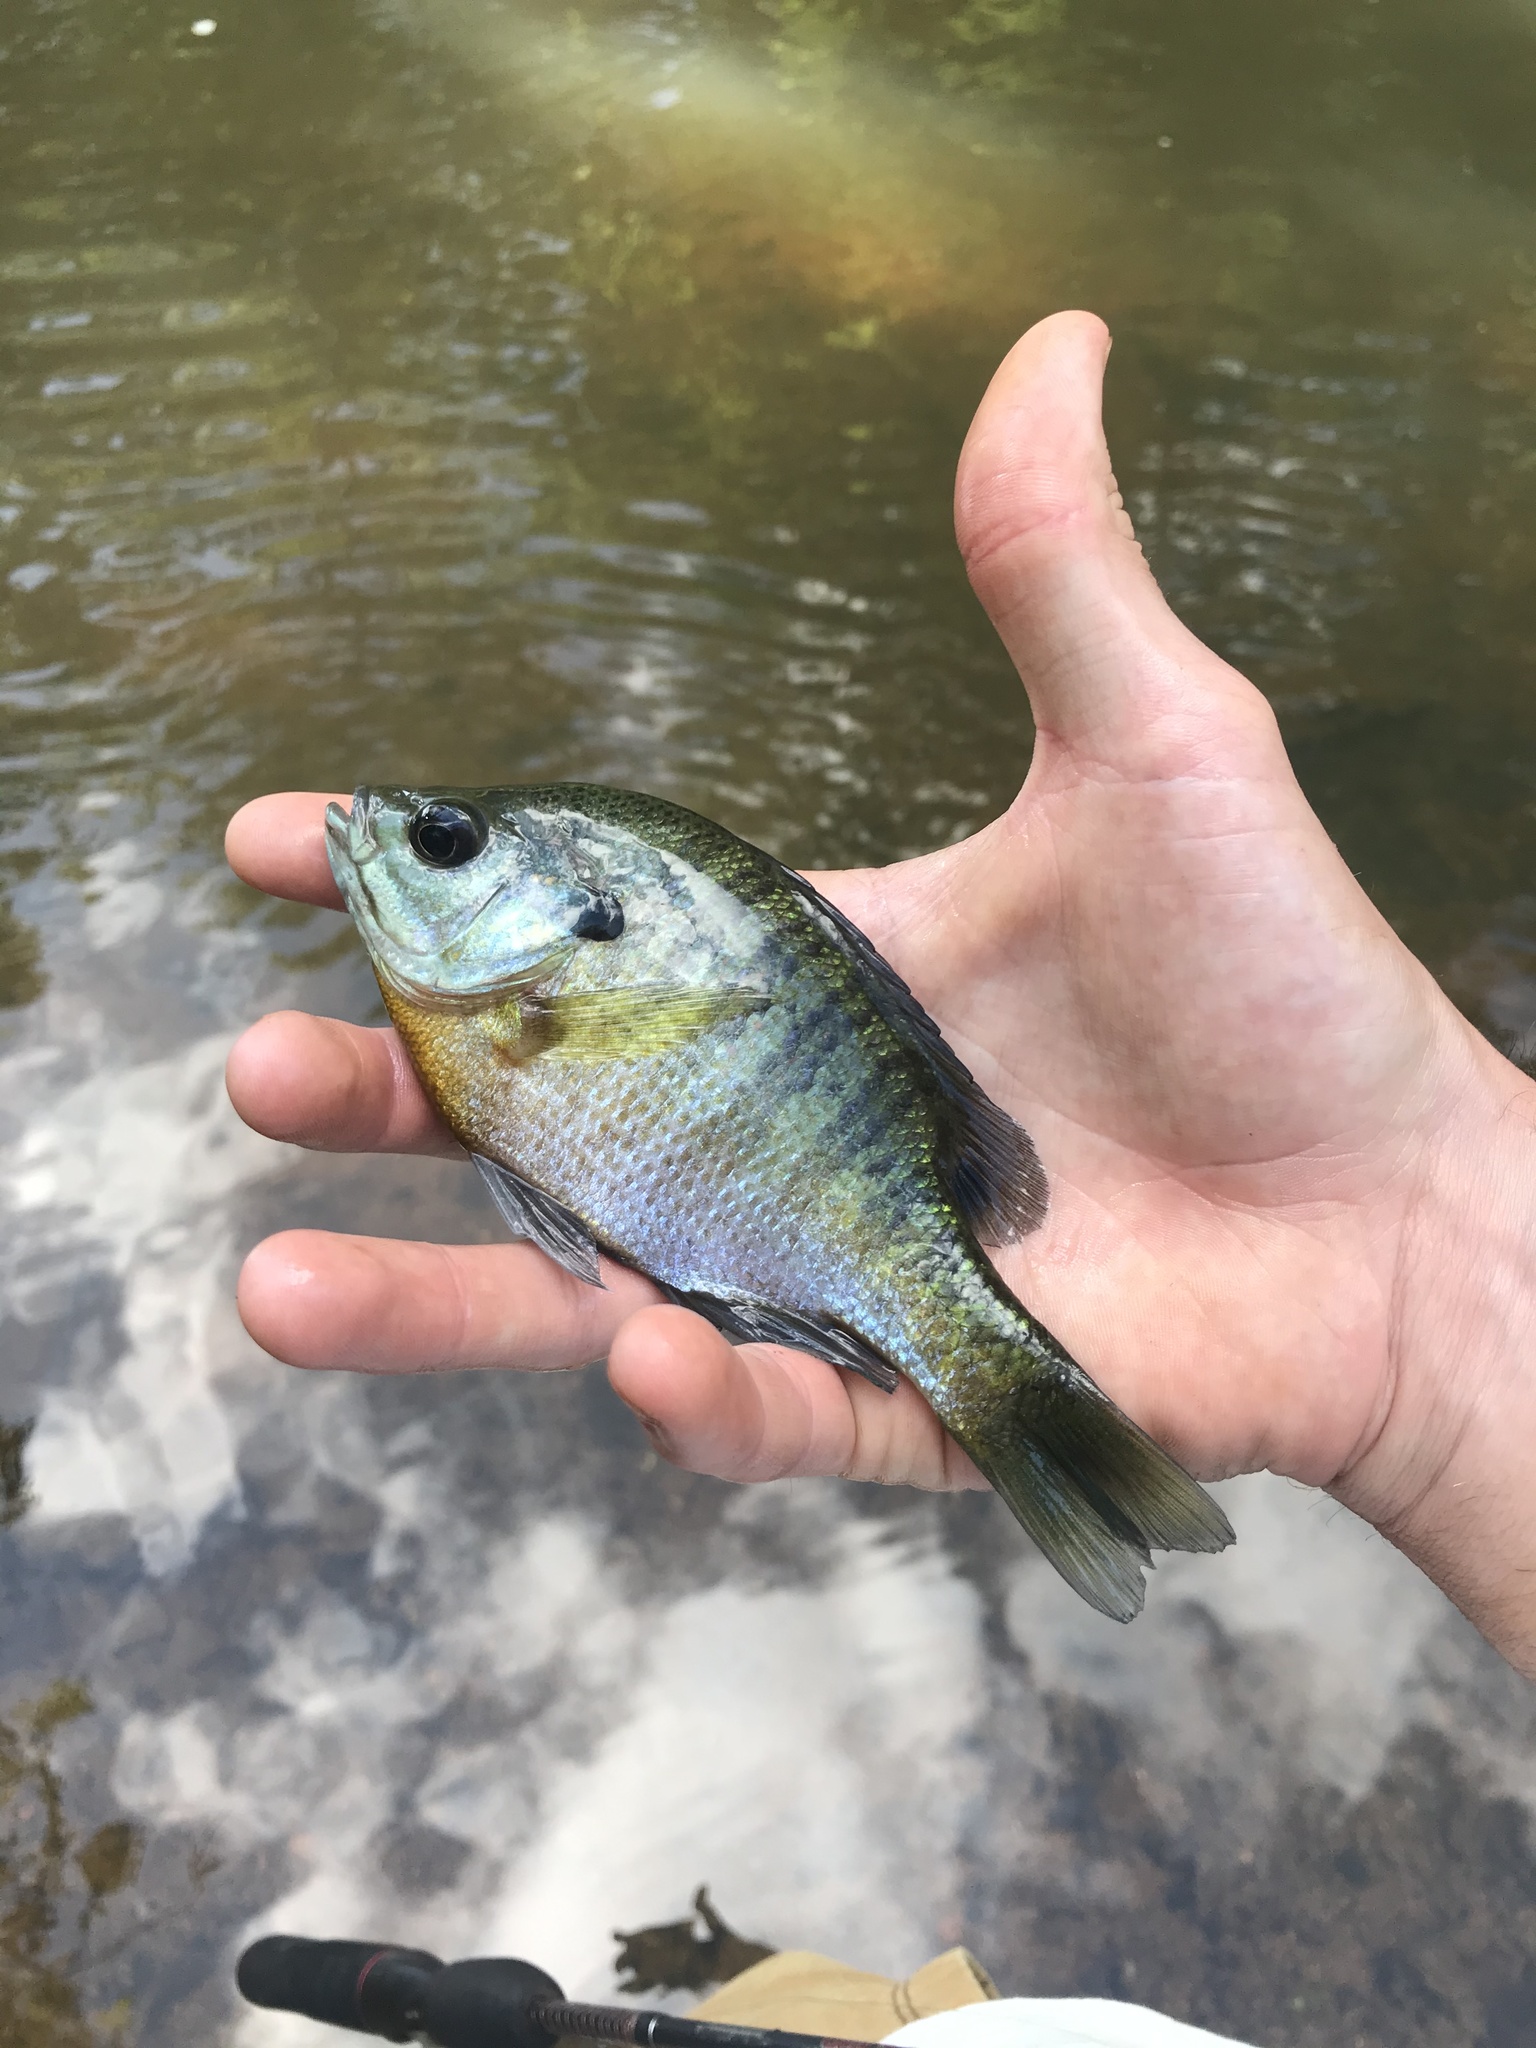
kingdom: Animalia
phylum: Chordata
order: Perciformes
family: Centrarchidae
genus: Lepomis
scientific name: Lepomis macrochirus
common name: Bluegill
